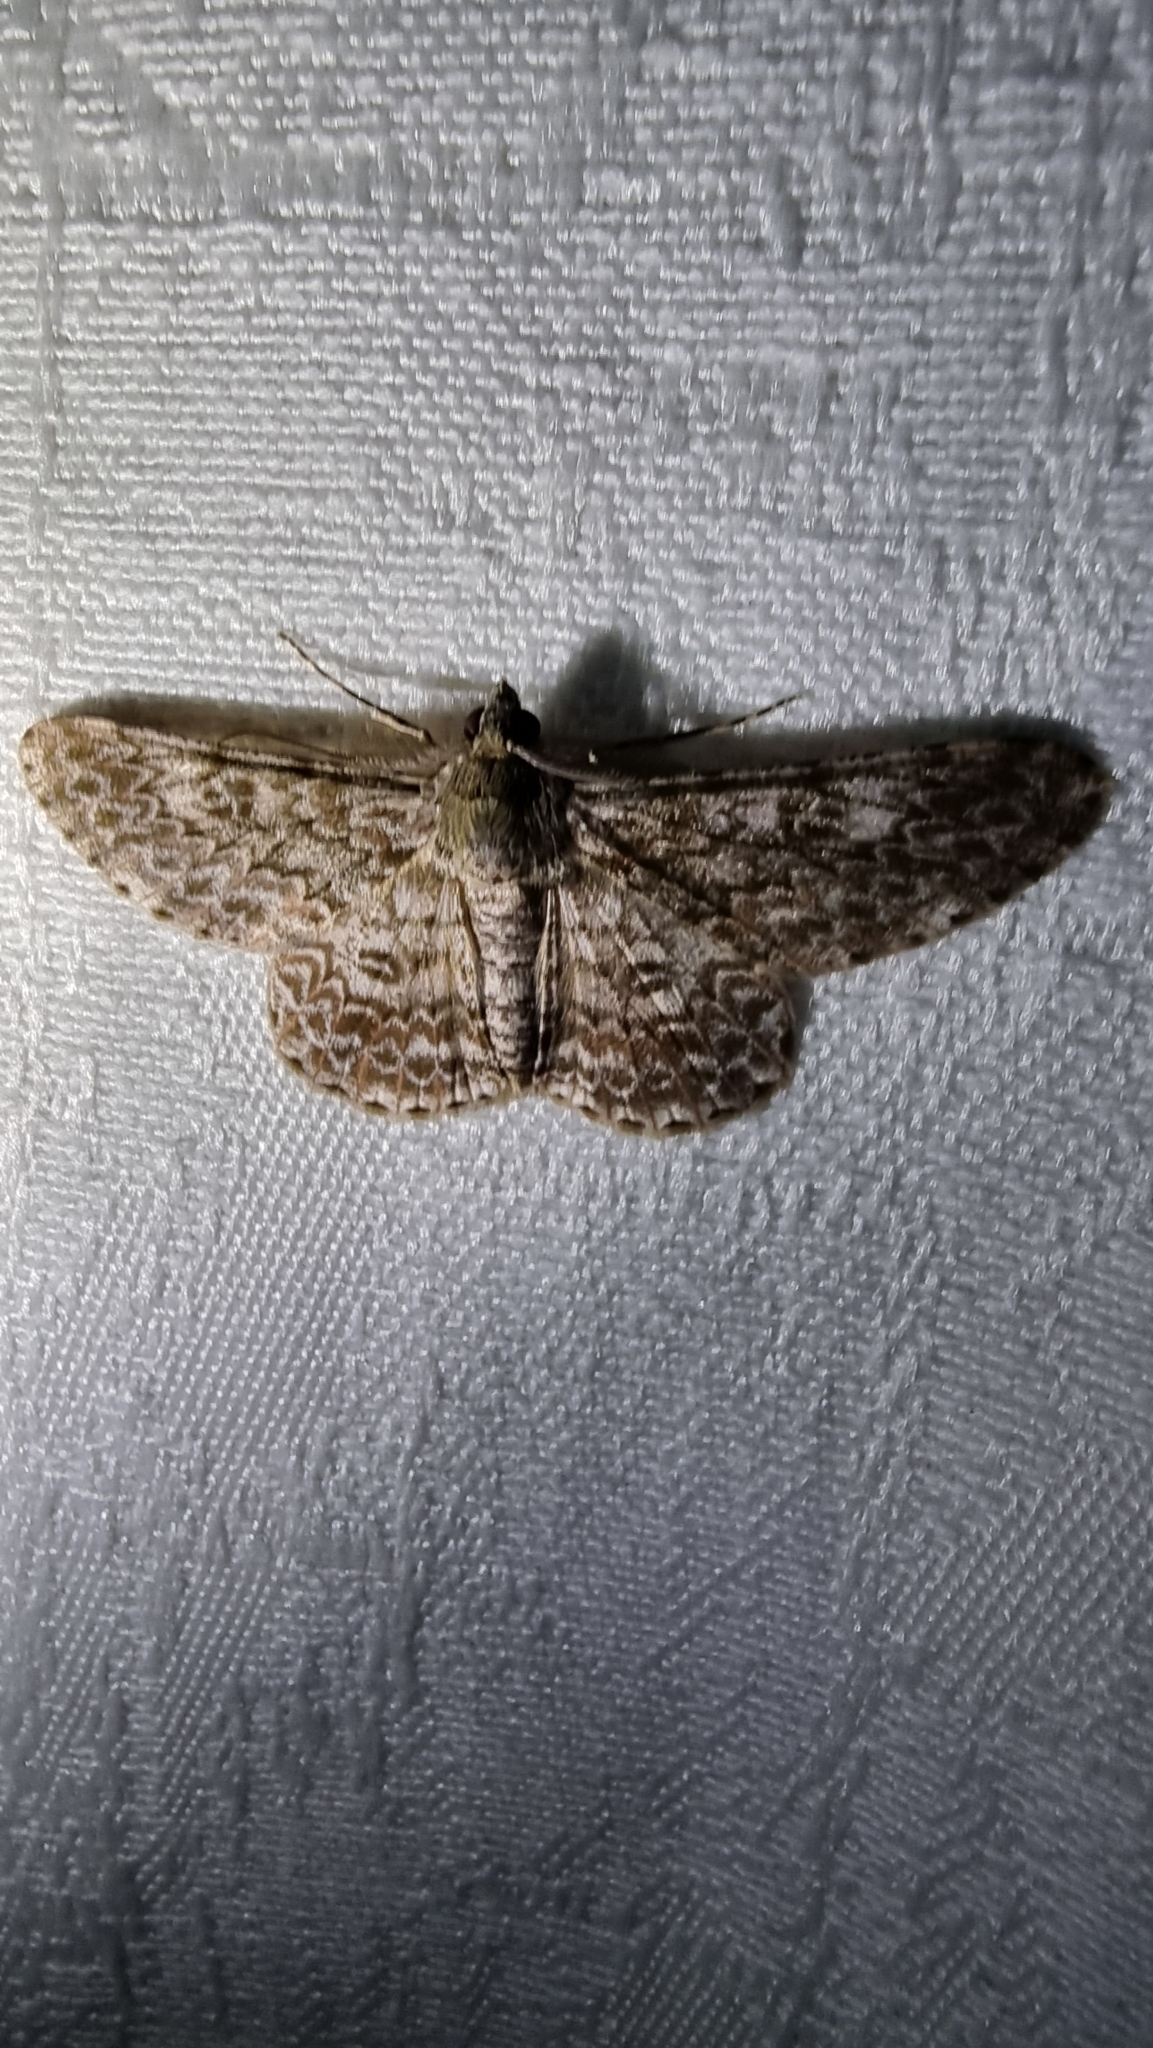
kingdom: Animalia
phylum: Arthropoda
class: Insecta
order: Lepidoptera
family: Geometridae
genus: Cleora
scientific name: Cleora sabulata
